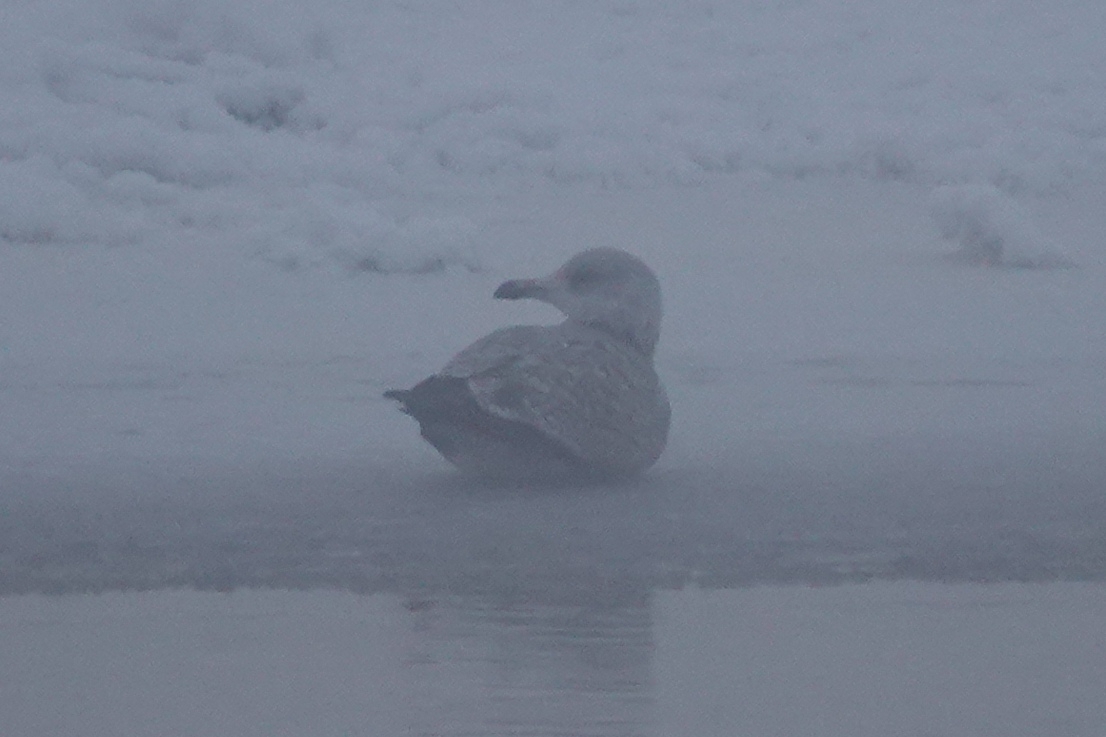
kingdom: Animalia
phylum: Chordata
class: Aves
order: Charadriiformes
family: Laridae
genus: Larus
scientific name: Larus argentatus
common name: Herring gull
